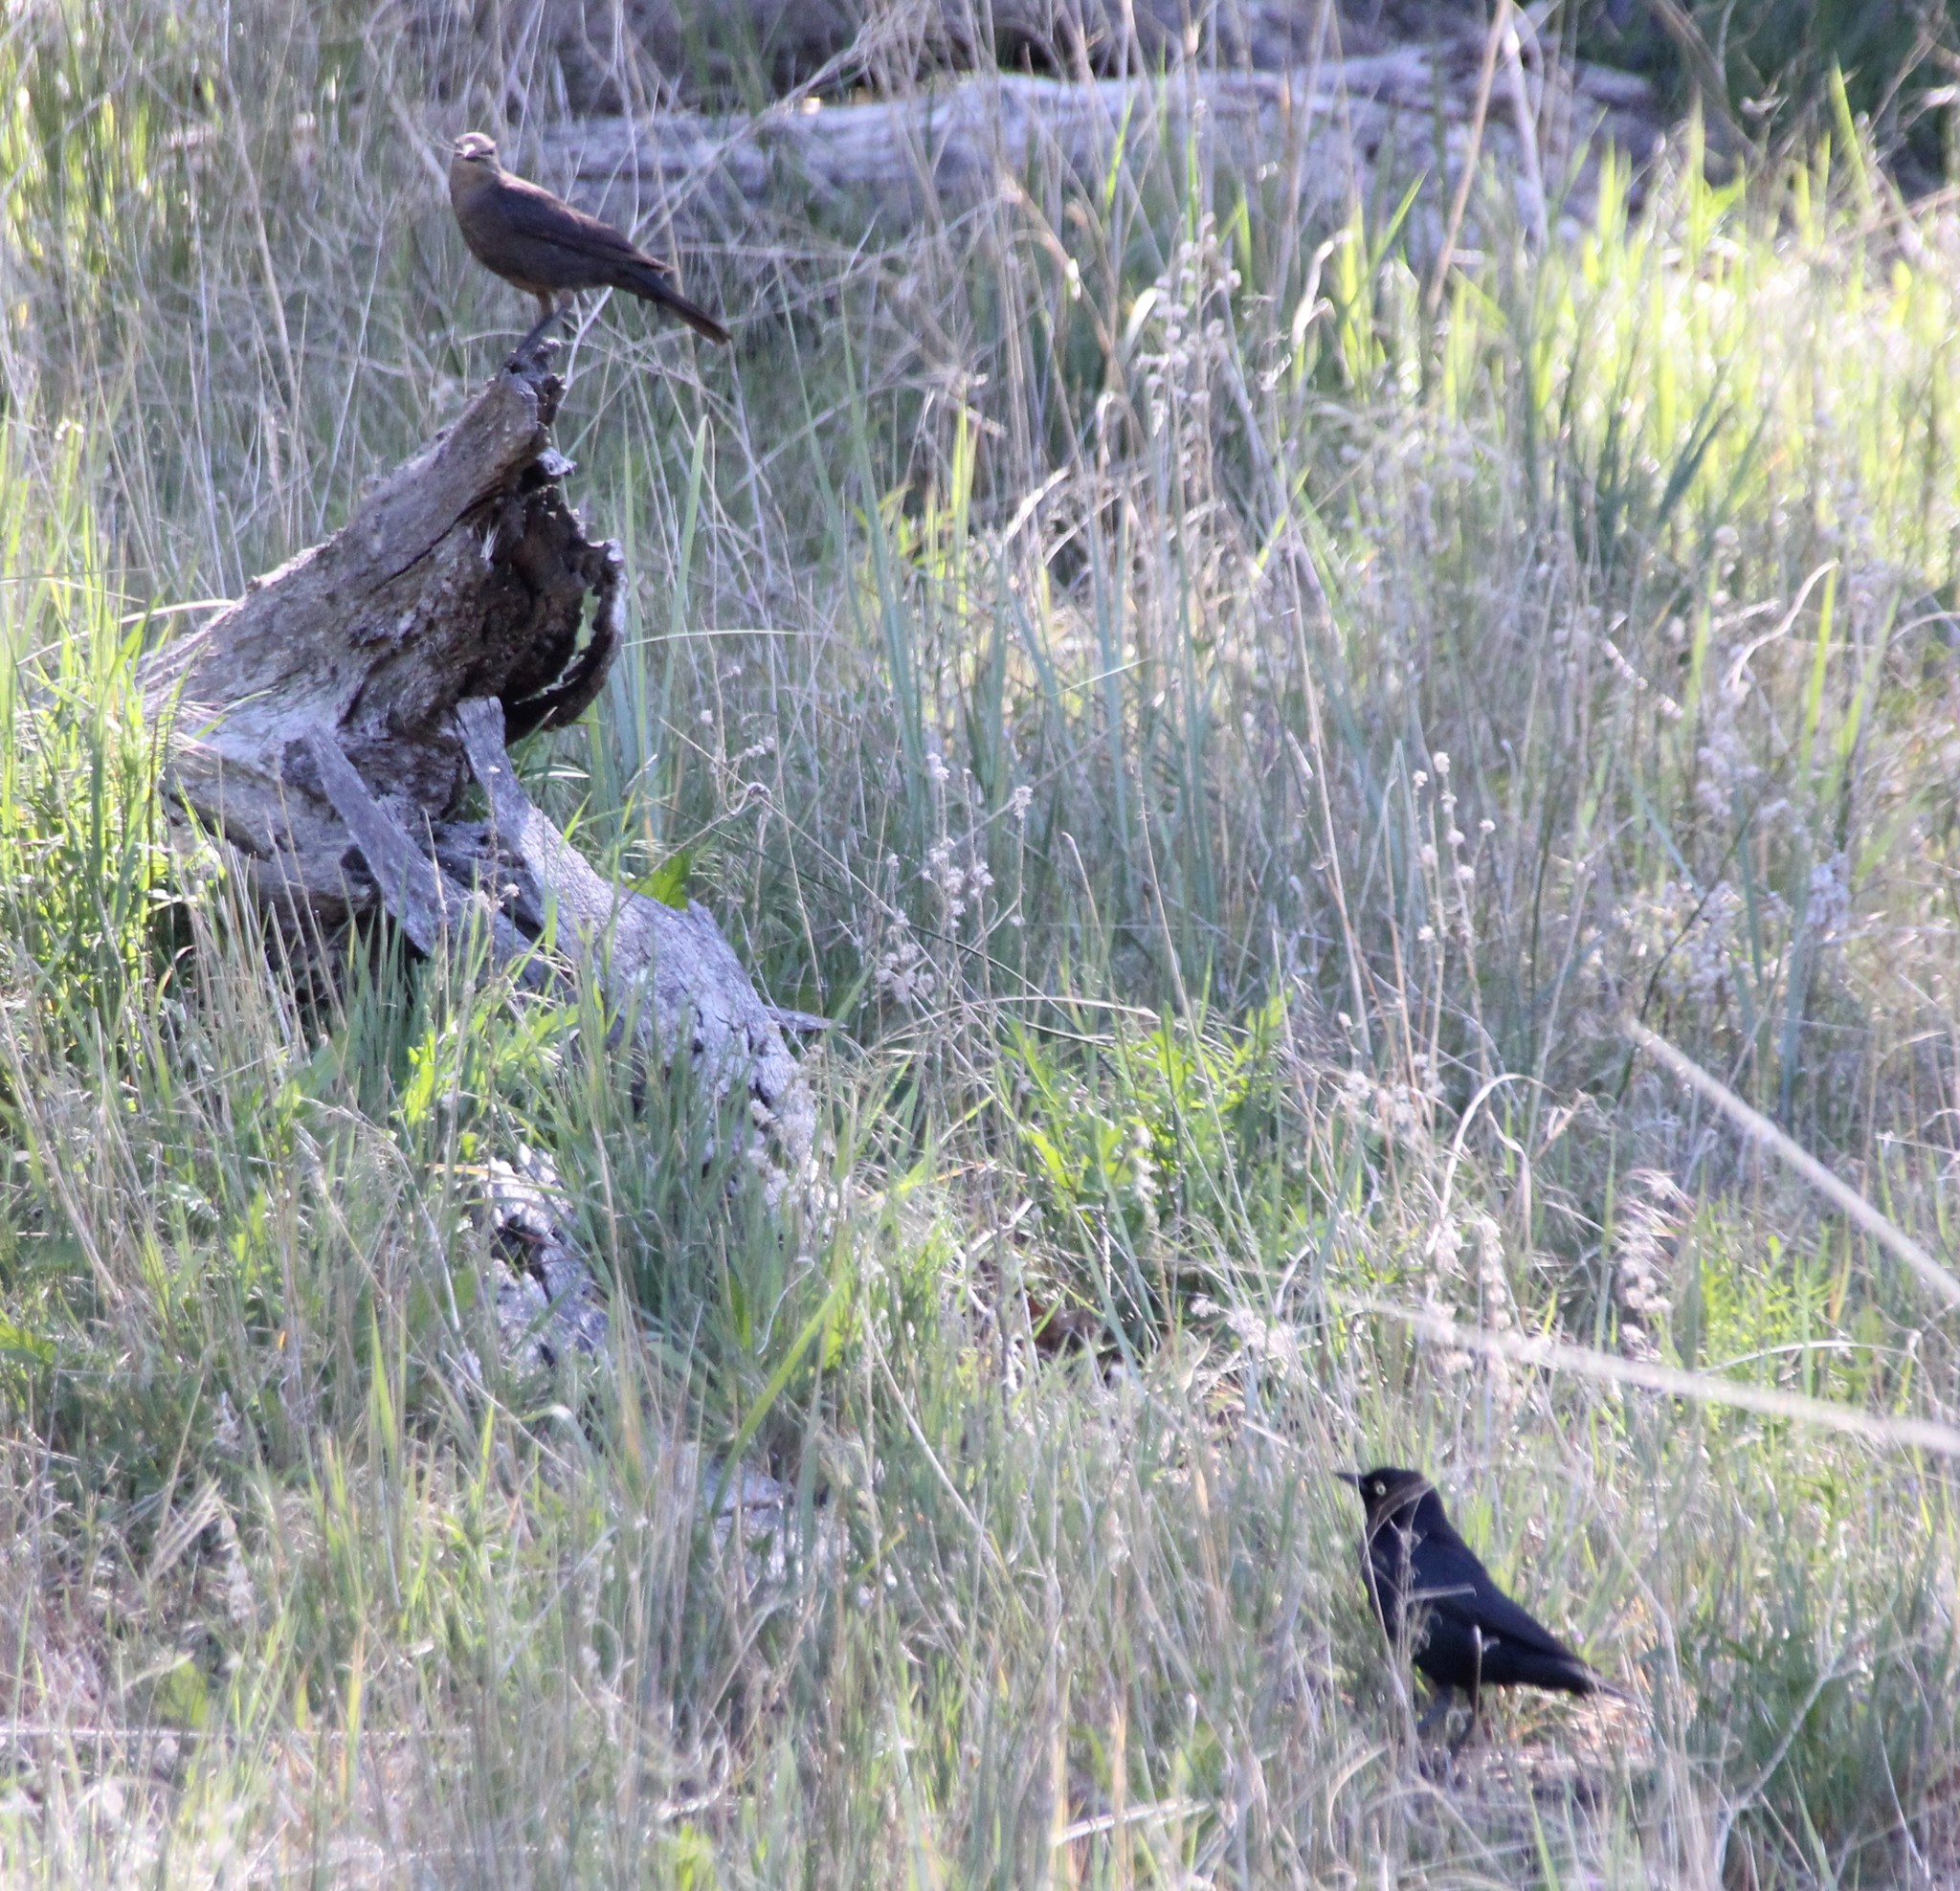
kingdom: Animalia
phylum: Chordata
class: Aves
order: Passeriformes
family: Icteridae
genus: Euphagus
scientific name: Euphagus cyanocephalus
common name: Brewer's blackbird
